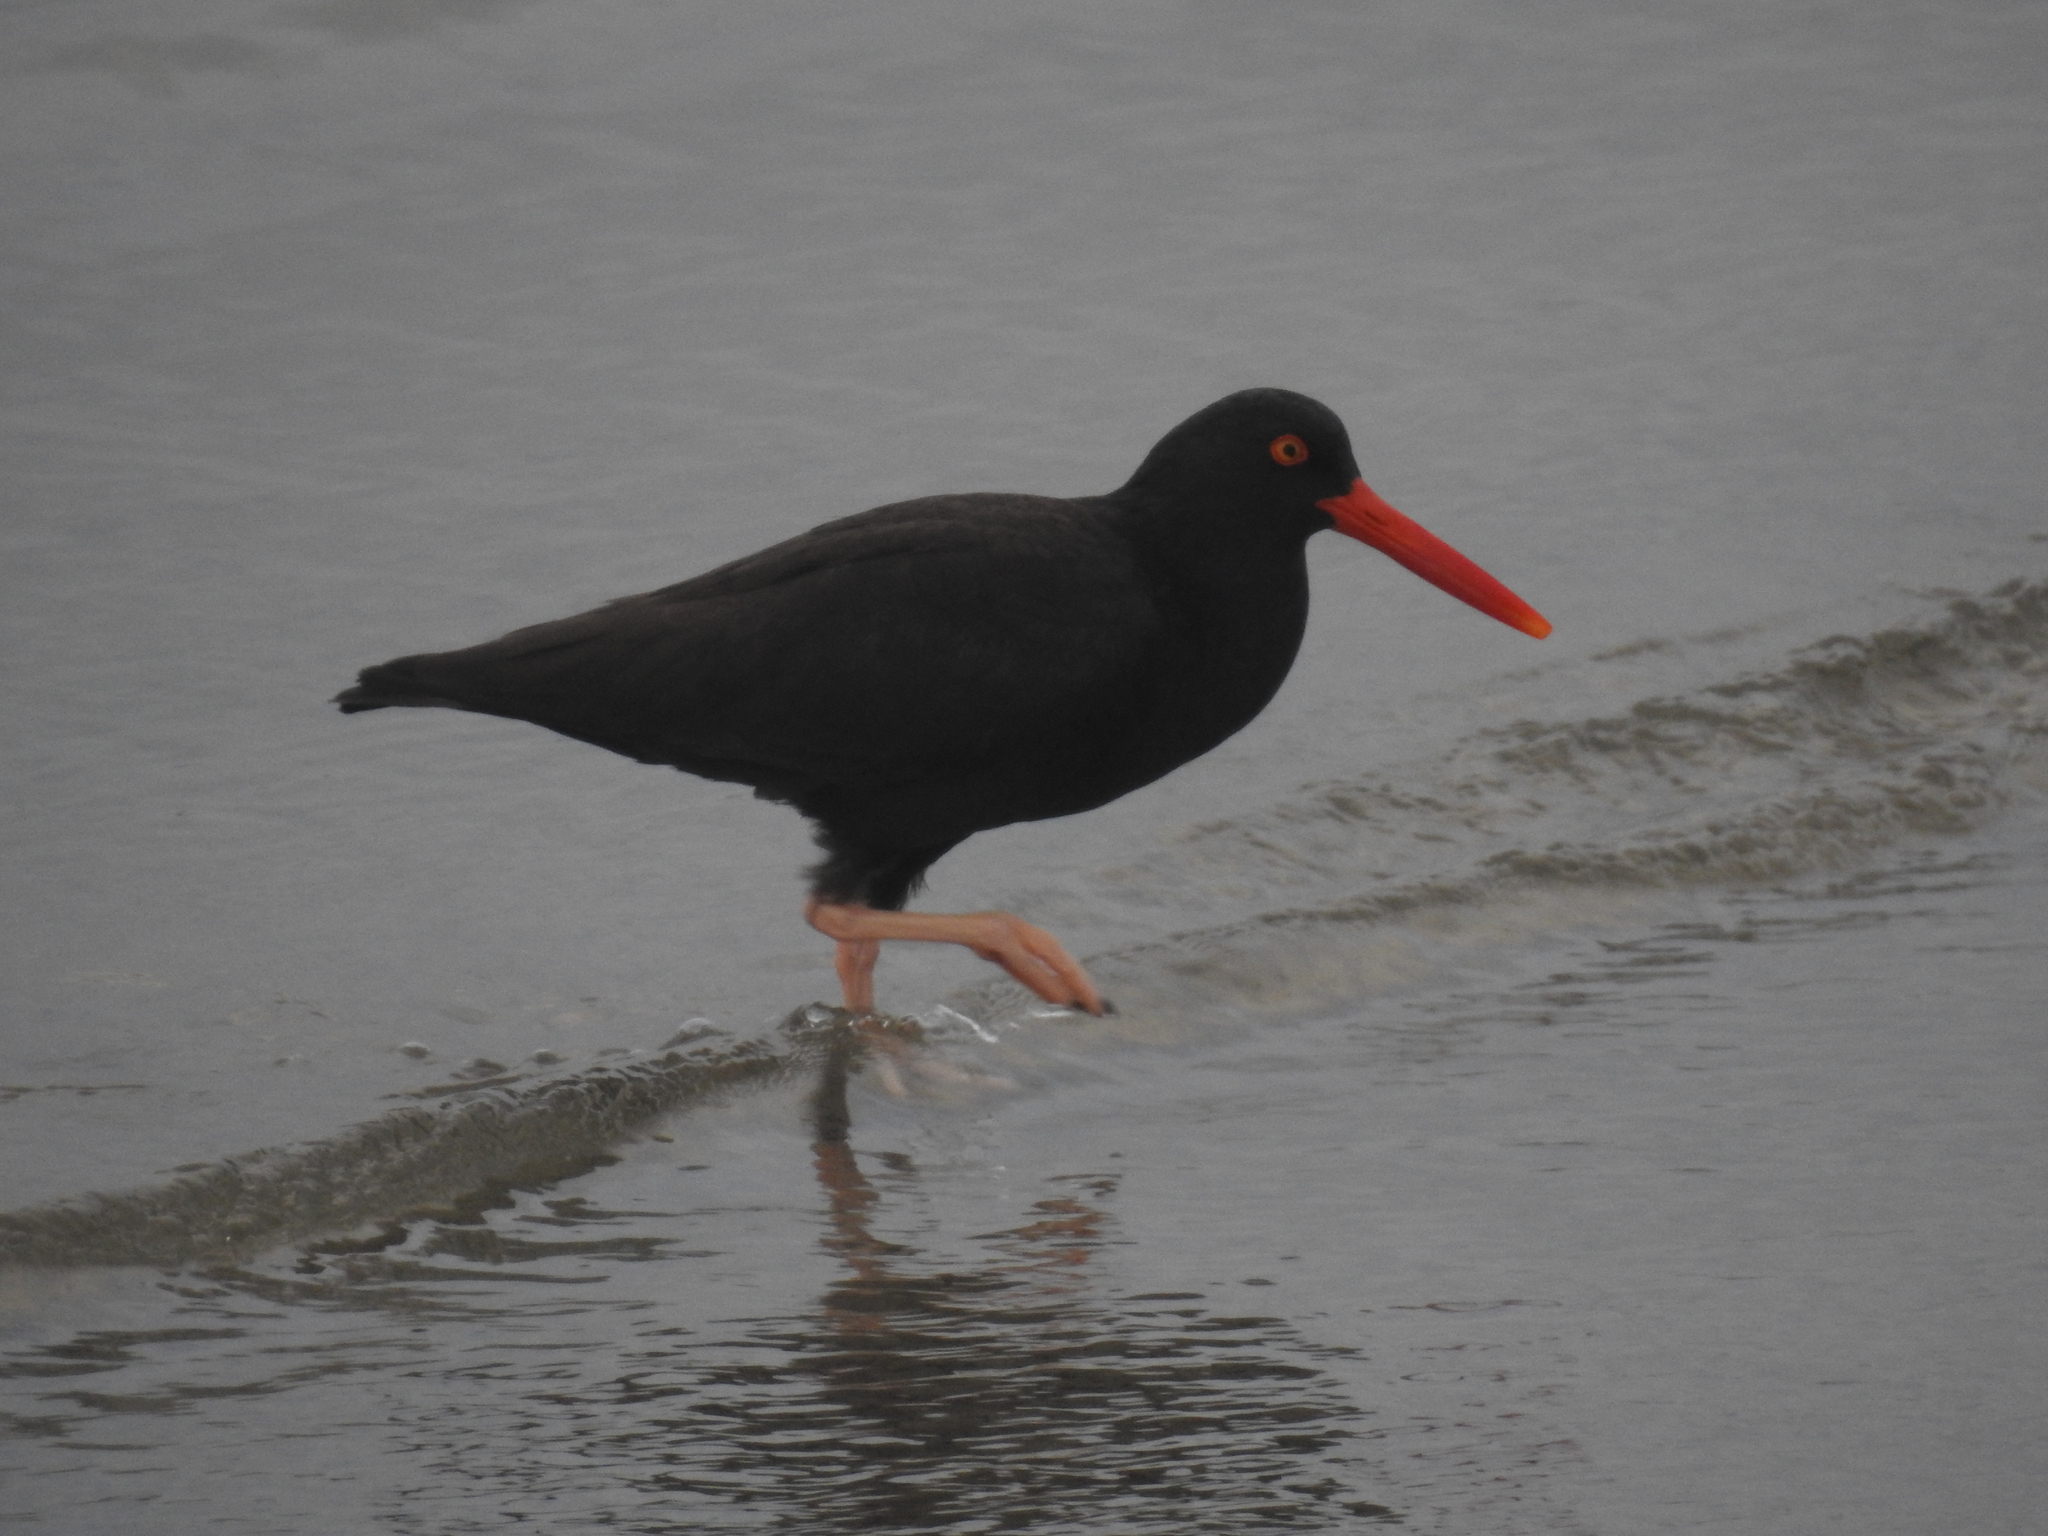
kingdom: Animalia
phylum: Chordata
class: Aves
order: Charadriiformes
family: Haematopodidae
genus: Haematopus
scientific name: Haematopus bachmani
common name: Black oystercatcher
